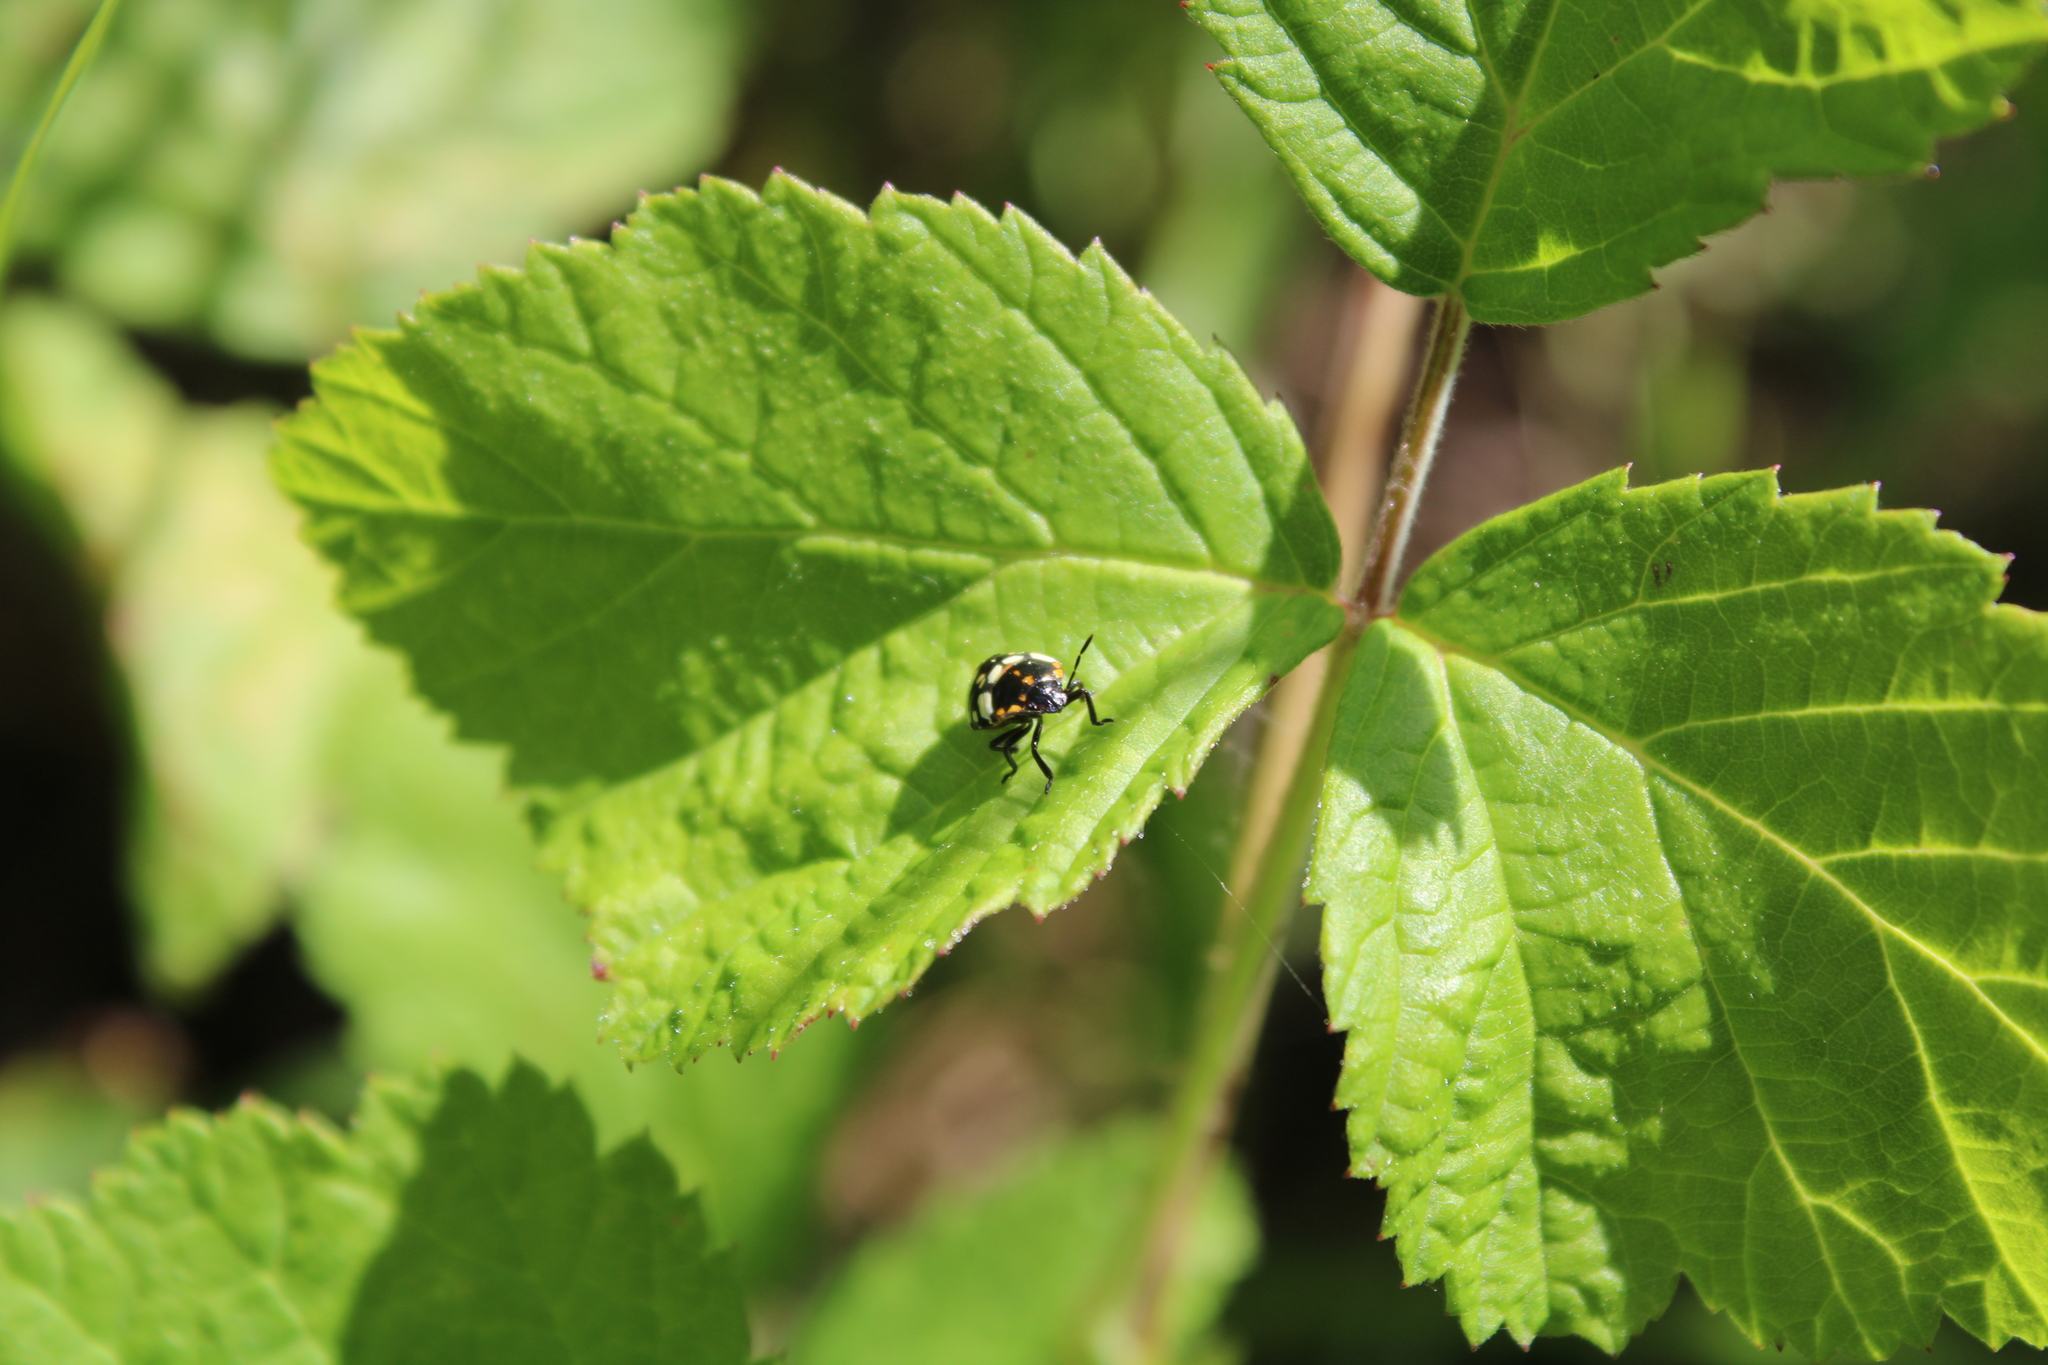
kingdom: Animalia
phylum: Arthropoda
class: Insecta
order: Hemiptera
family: Pentatomidae
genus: Nezara
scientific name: Nezara viridula
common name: Southern green stink bug
